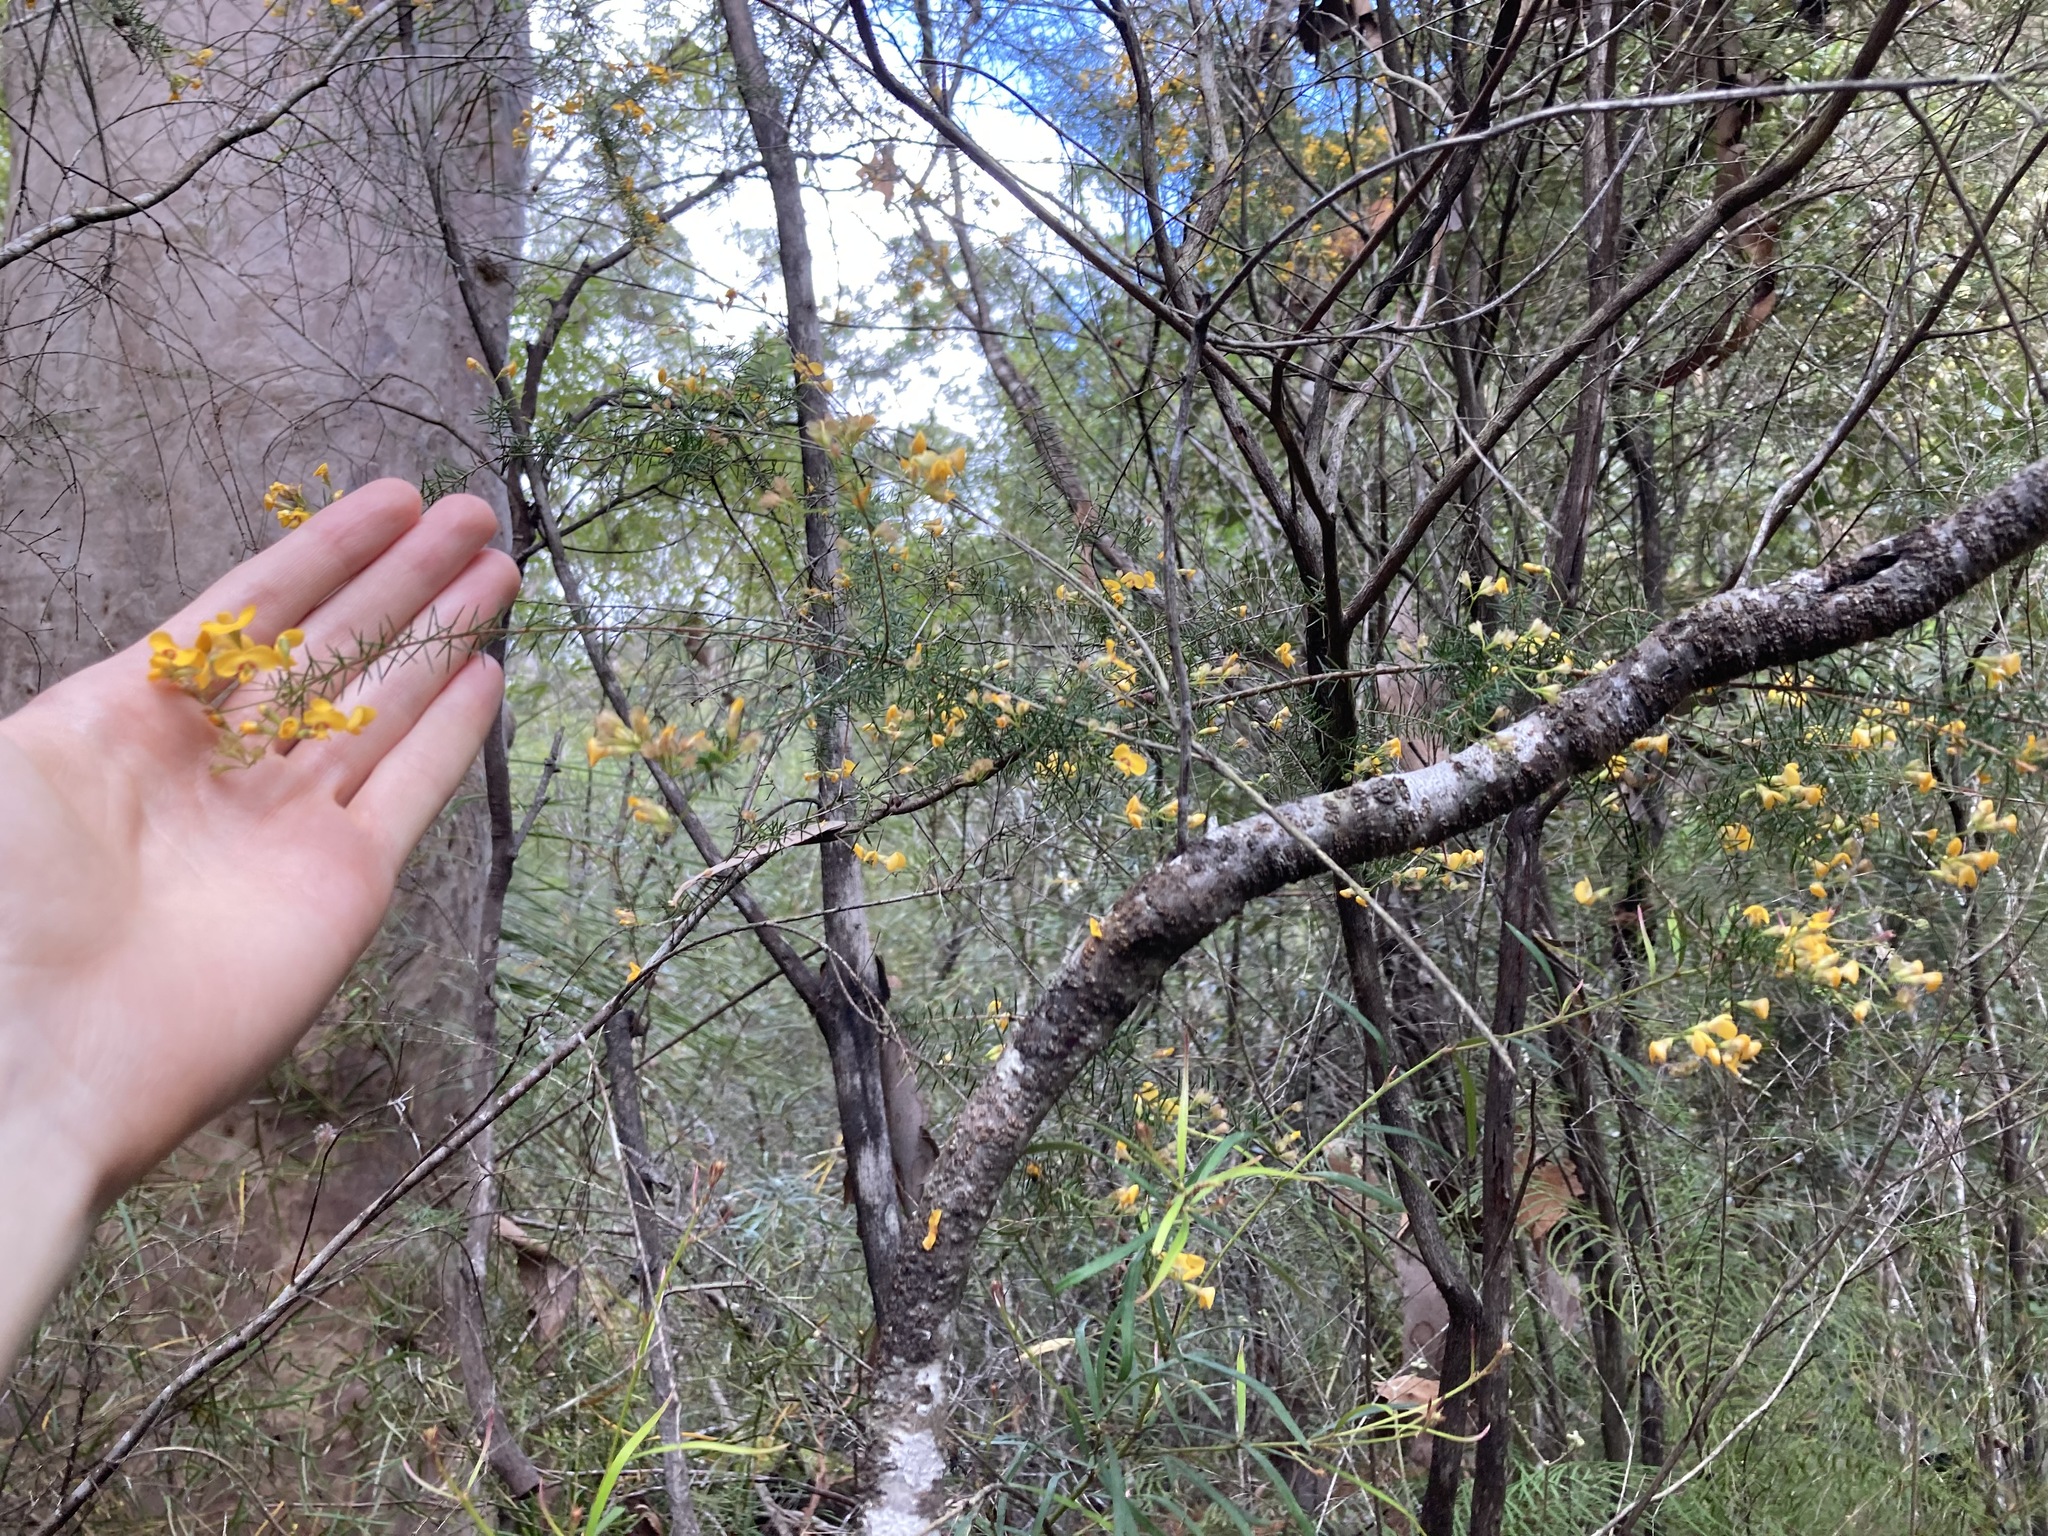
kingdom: Plantae
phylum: Tracheophyta
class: Magnoliopsida
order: Fabales
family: Fabaceae
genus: Dillwynia
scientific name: Dillwynia retorta
